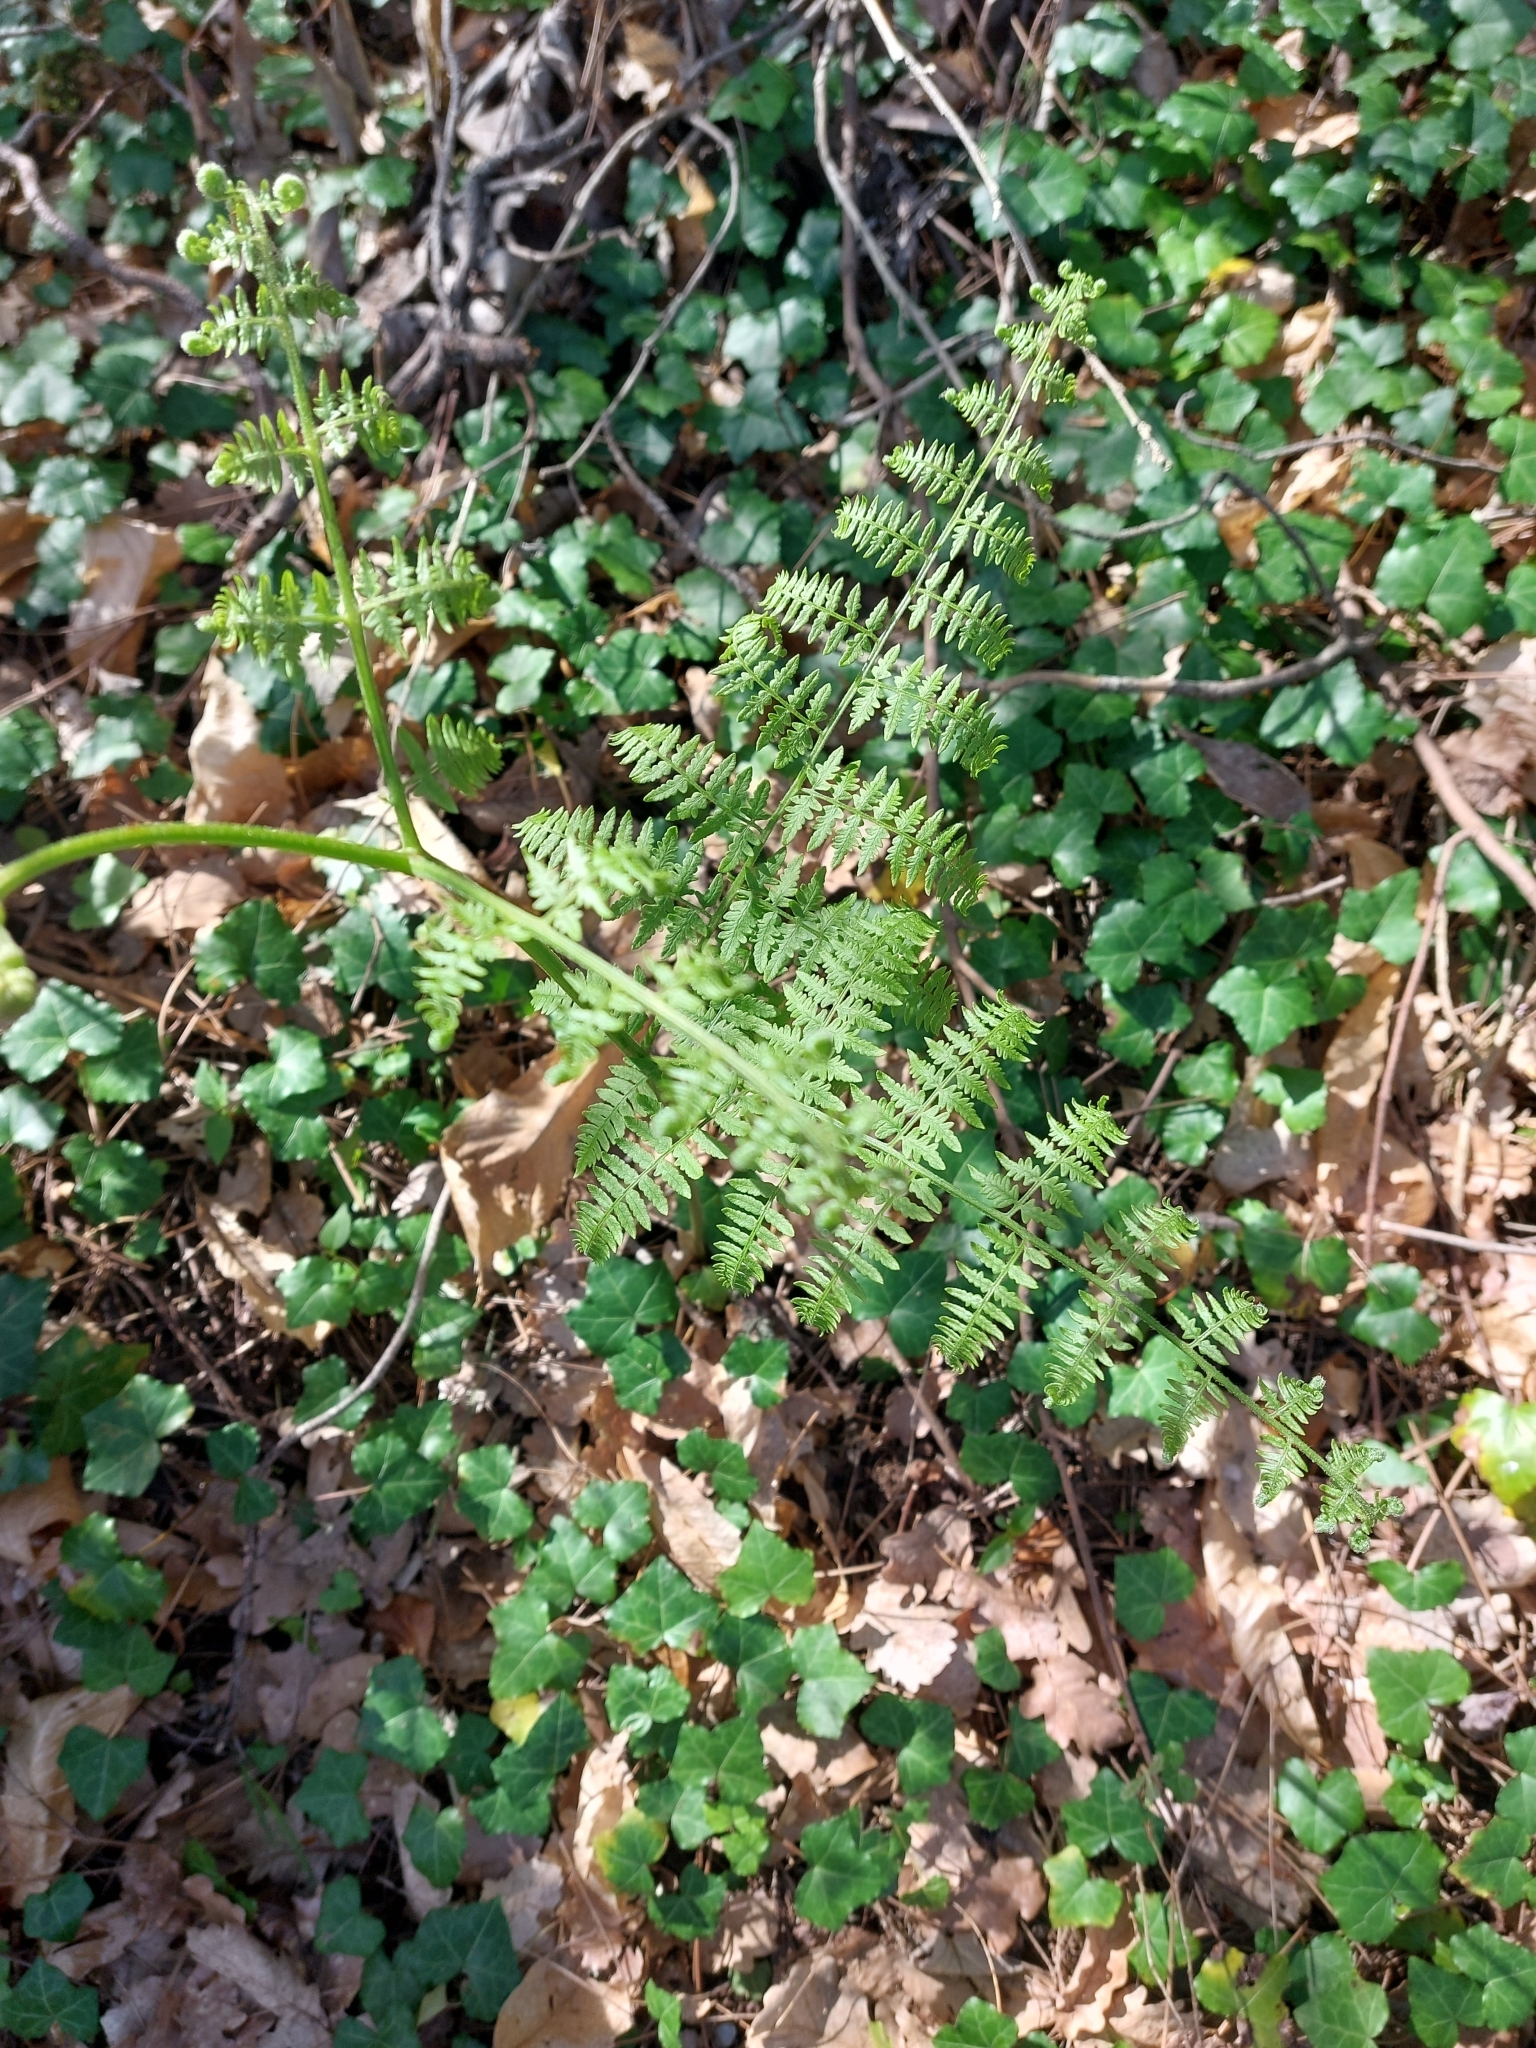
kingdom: Plantae
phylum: Tracheophyta
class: Polypodiopsida
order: Polypodiales
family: Dennstaedtiaceae
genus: Pteridium
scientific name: Pteridium aquilinum
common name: Bracken
